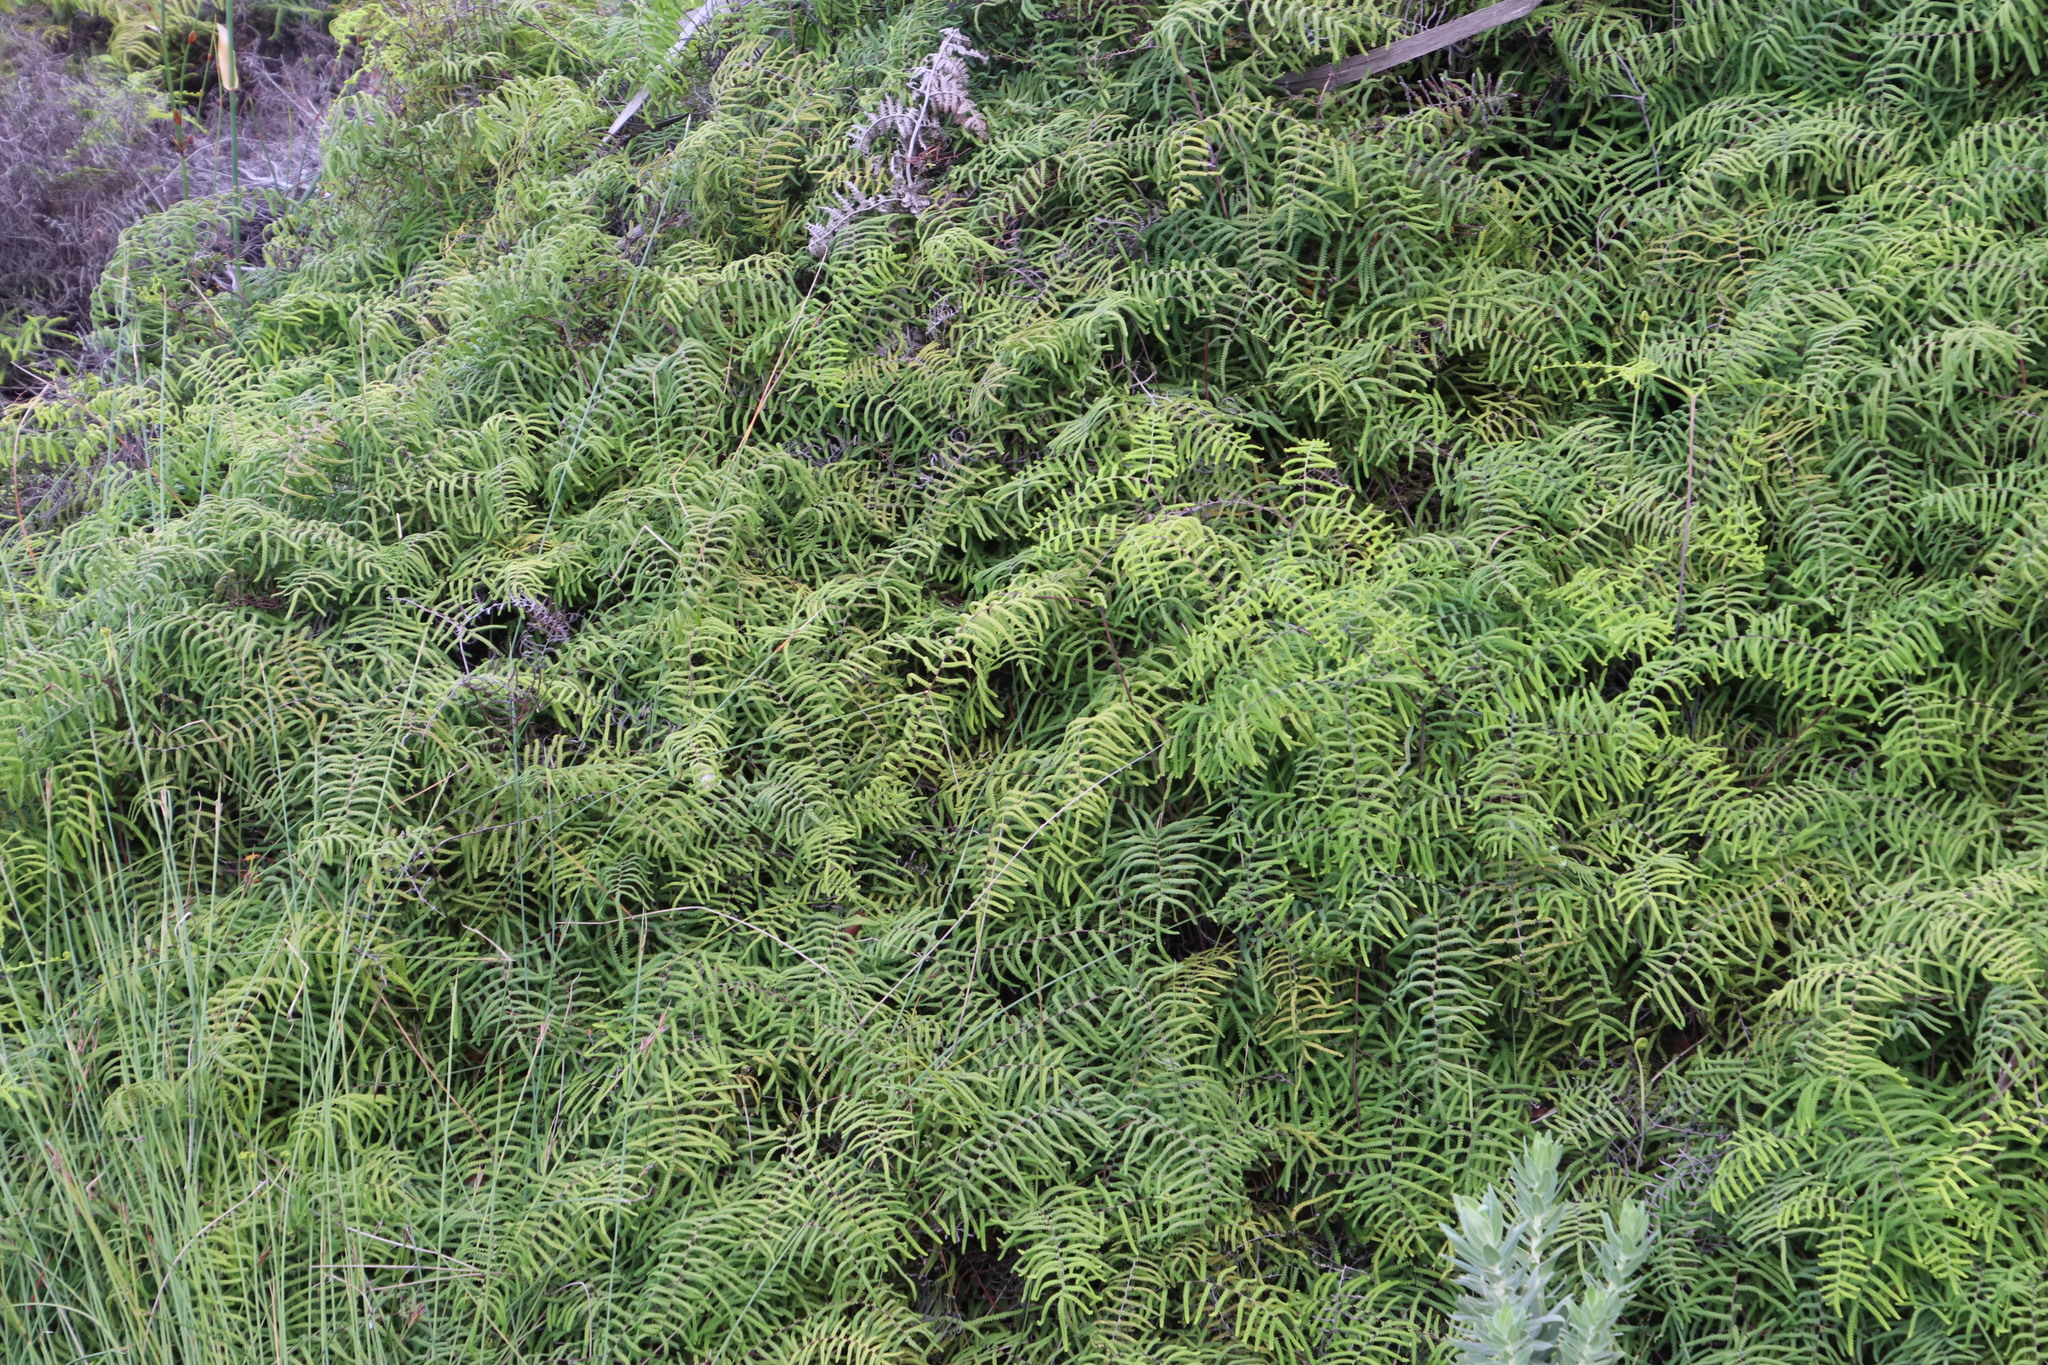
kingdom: Plantae
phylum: Tracheophyta
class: Polypodiopsida
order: Gleicheniales
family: Gleicheniaceae
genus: Gleichenia
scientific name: Gleichenia polypodioides
